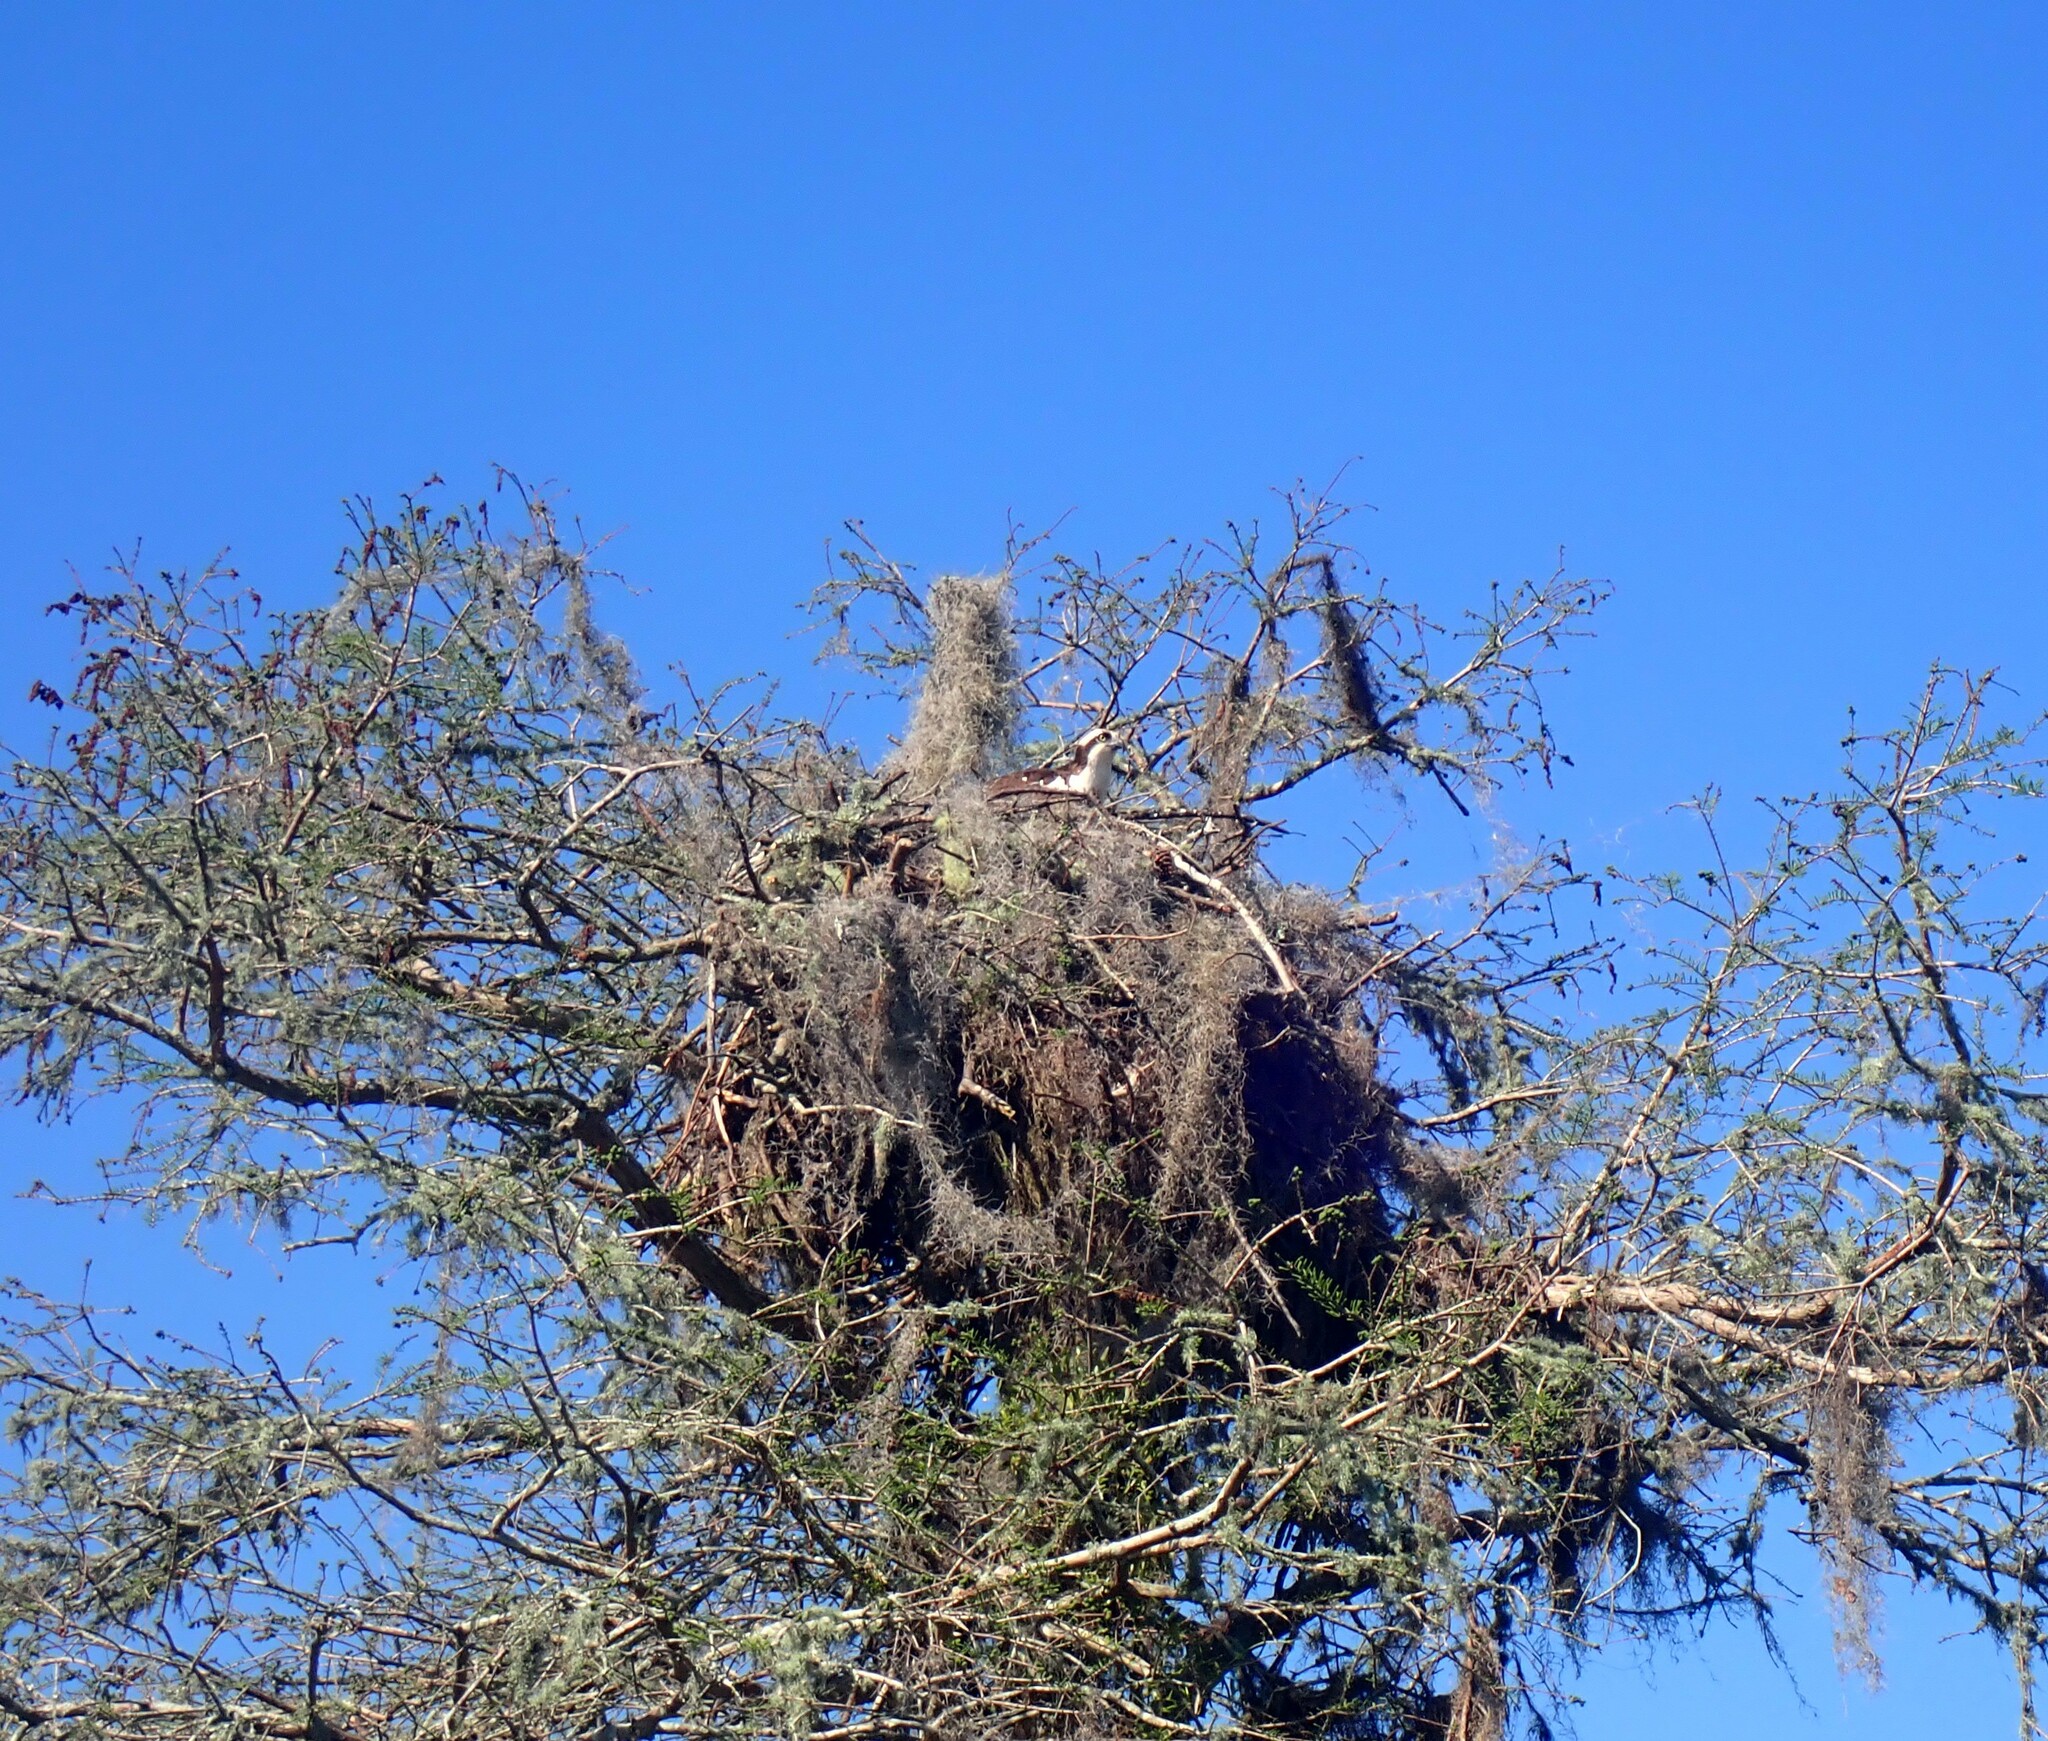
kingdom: Animalia
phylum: Chordata
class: Aves
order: Accipitriformes
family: Pandionidae
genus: Pandion
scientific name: Pandion haliaetus
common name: Osprey
